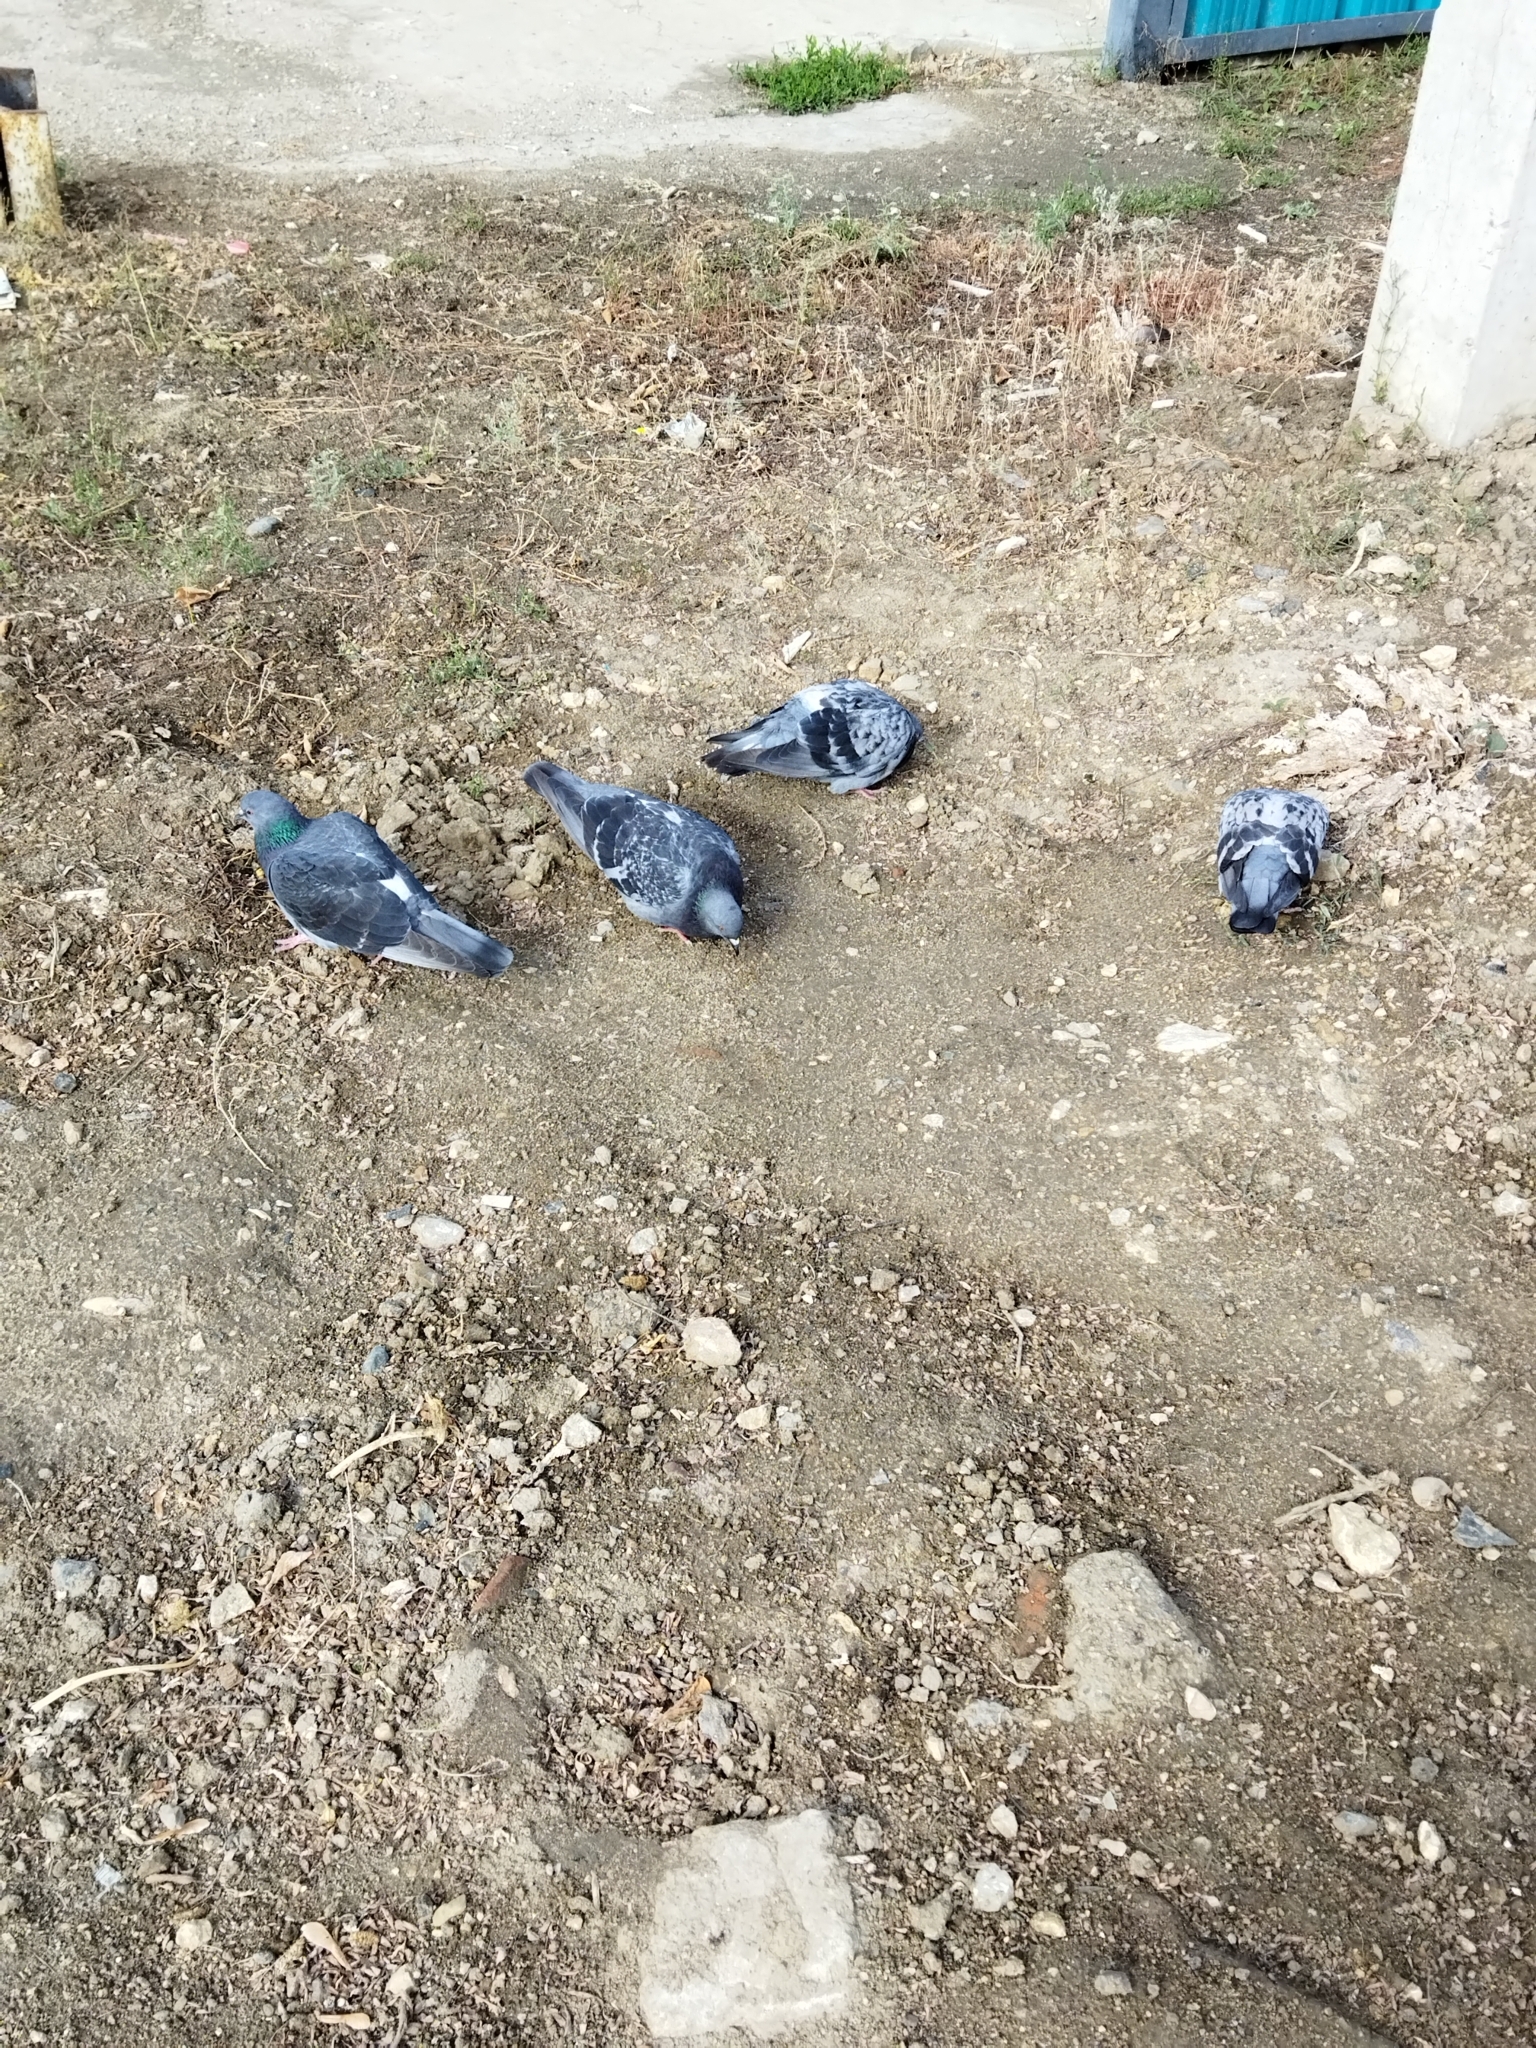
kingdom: Animalia
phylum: Chordata
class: Aves
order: Columbiformes
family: Columbidae
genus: Columba
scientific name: Columba livia
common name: Rock pigeon
